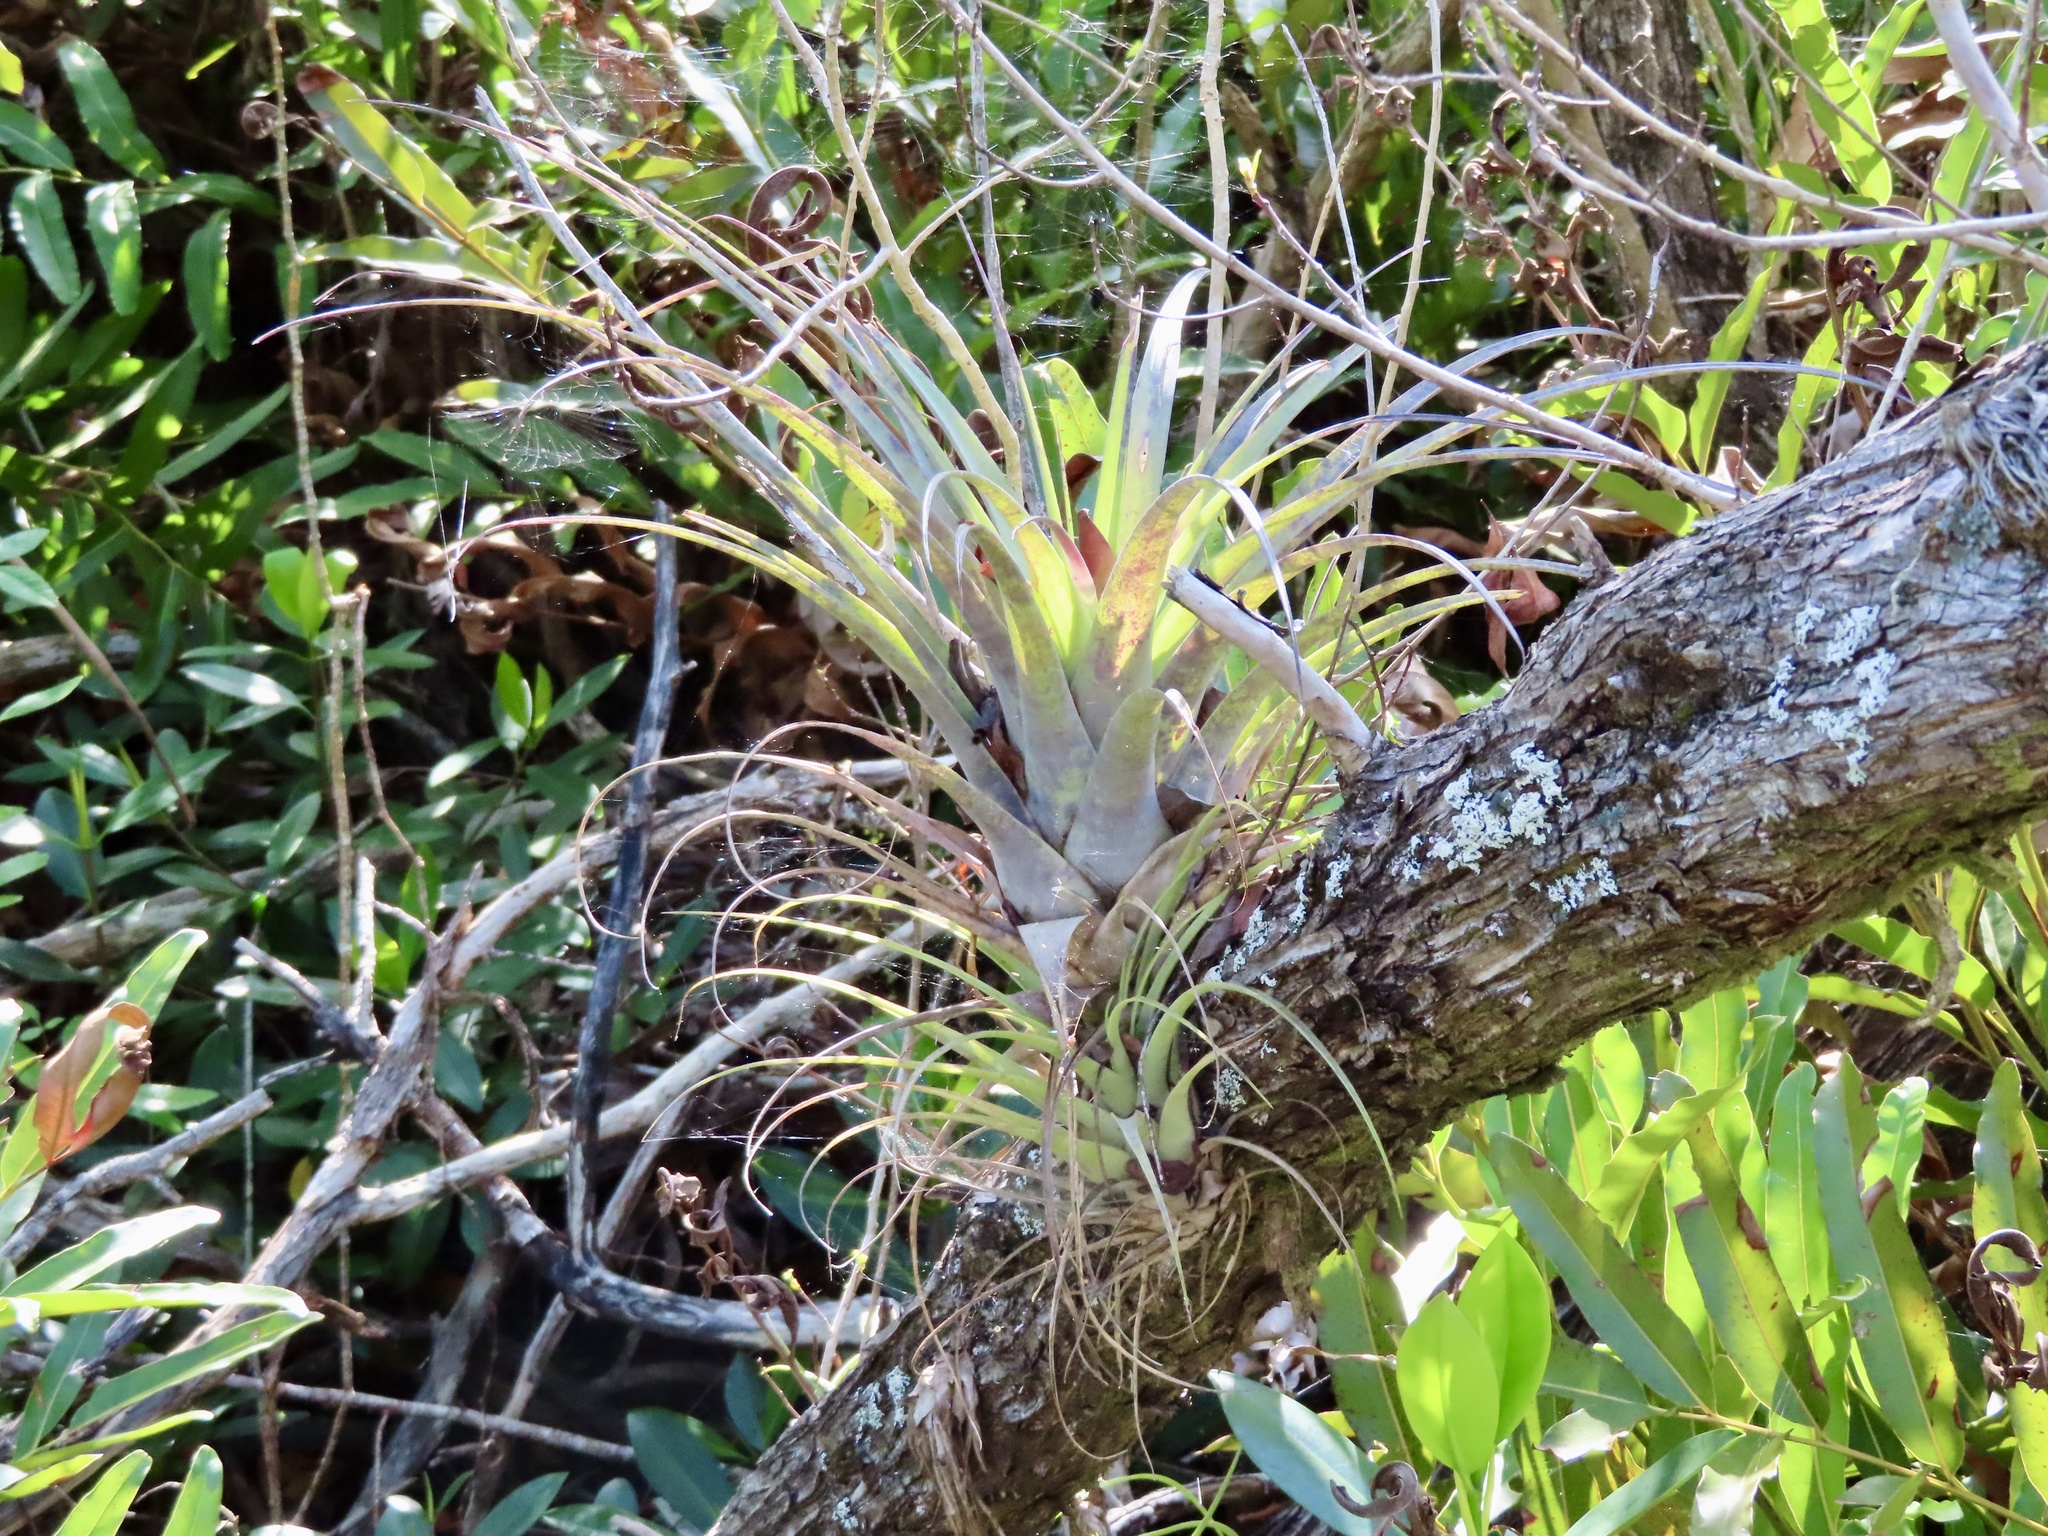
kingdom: Plantae
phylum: Tracheophyta
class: Liliopsida
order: Poales
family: Bromeliaceae
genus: Tillandsia
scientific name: Tillandsia utriculata
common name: Wild pine
